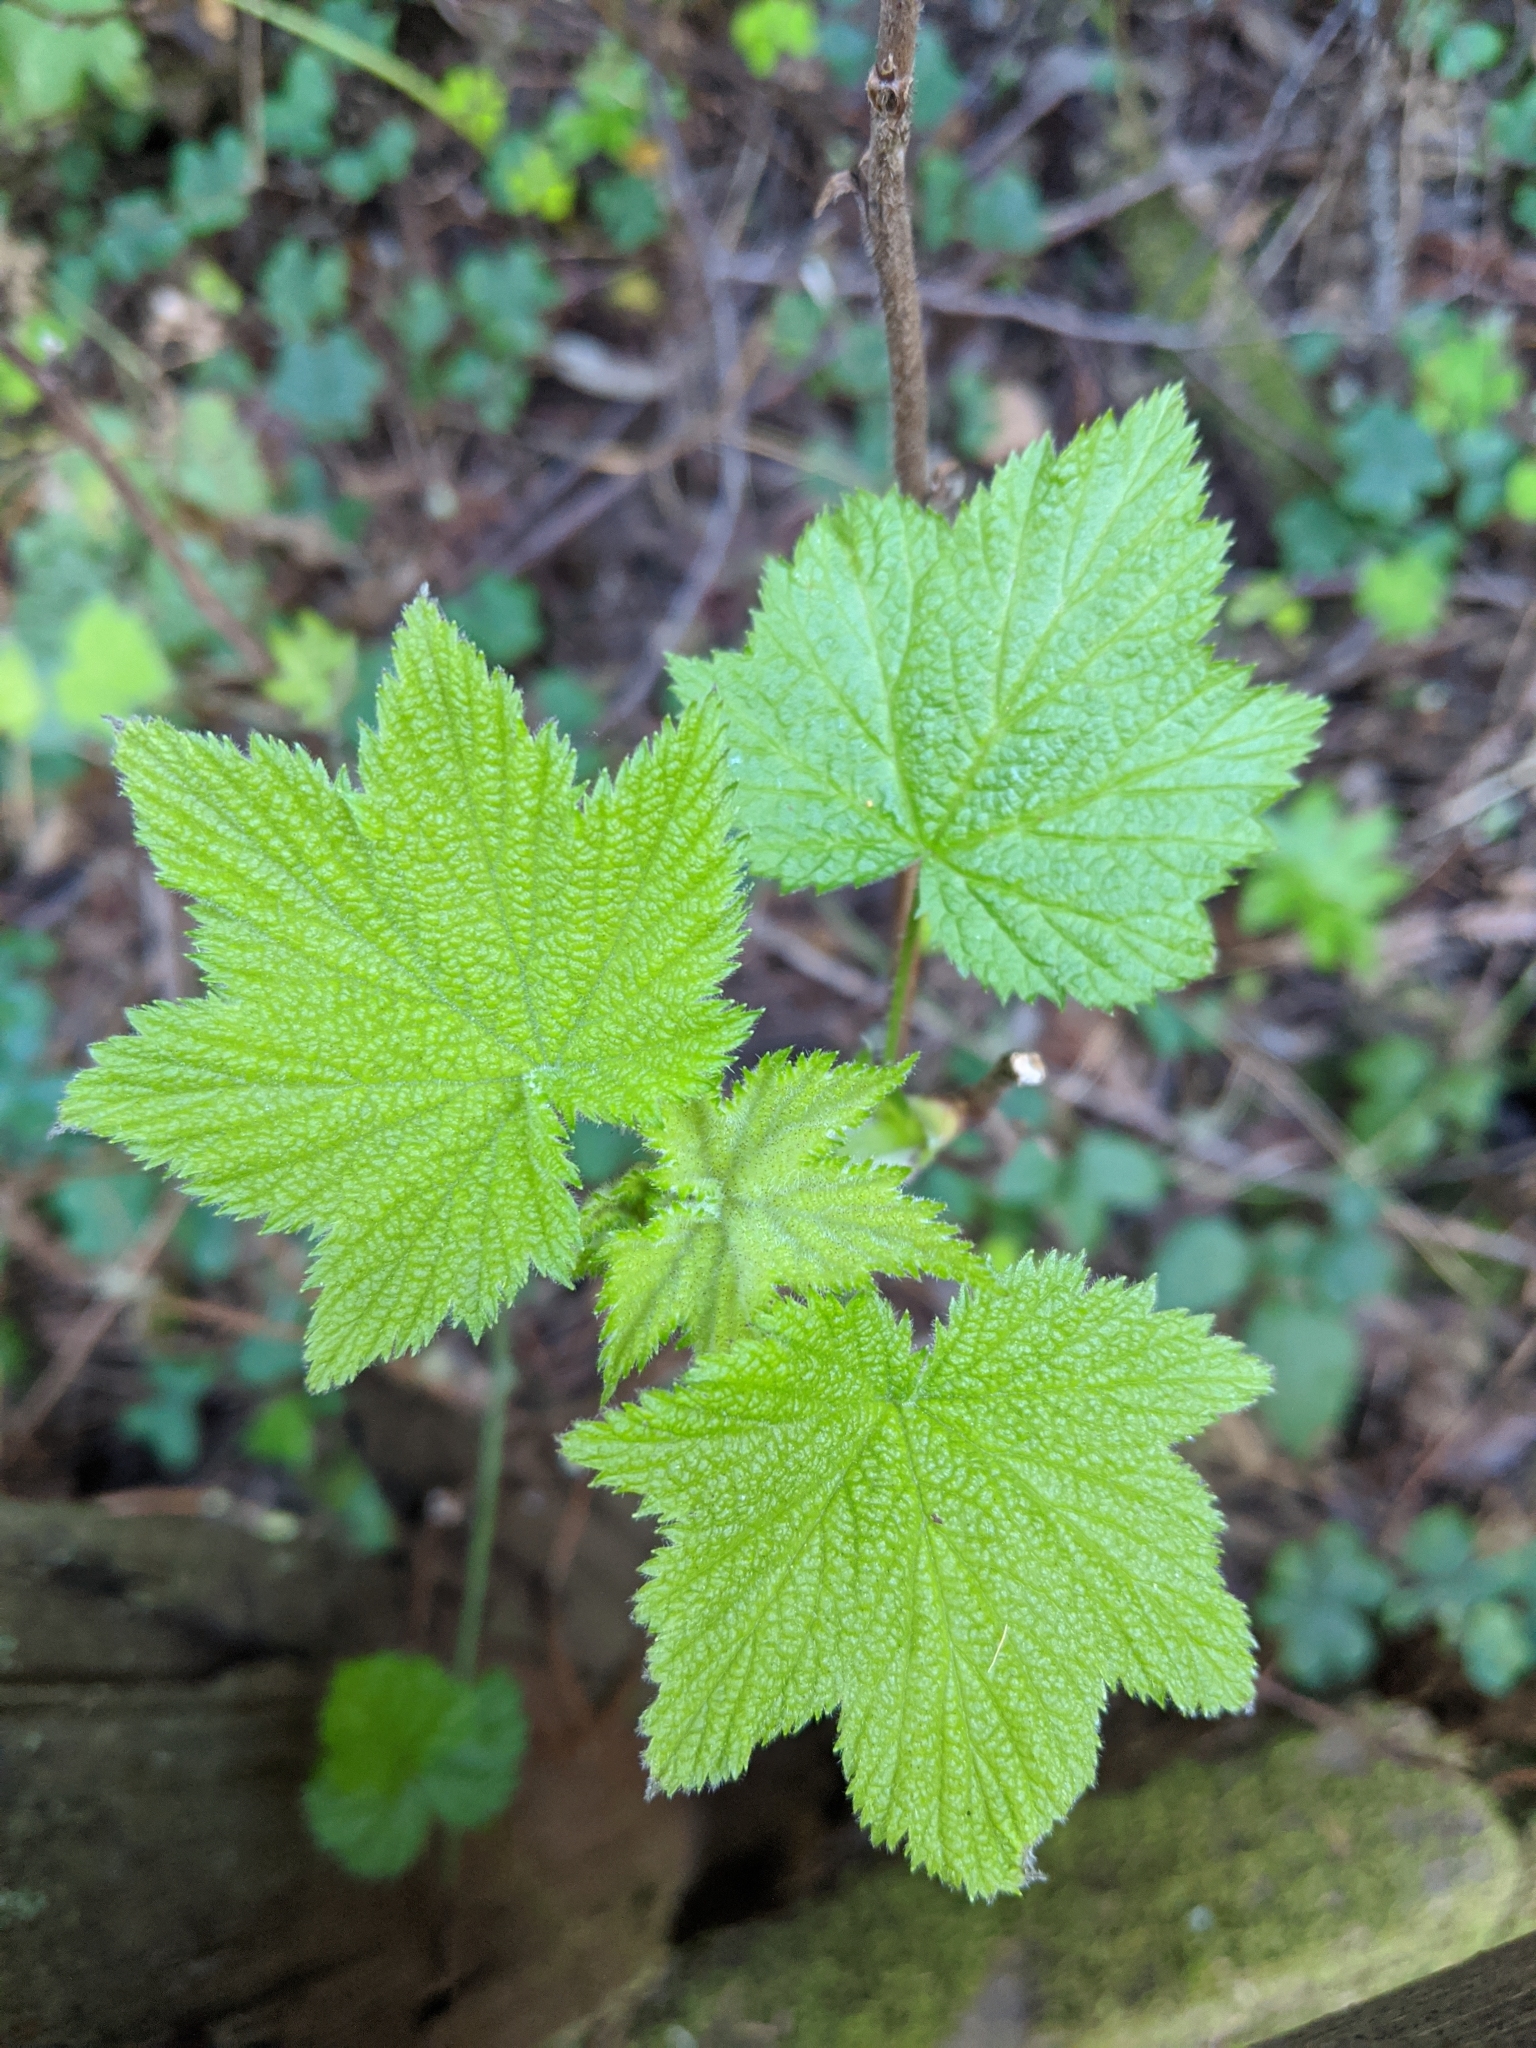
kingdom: Plantae
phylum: Tracheophyta
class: Magnoliopsida
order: Rosales
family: Rosaceae
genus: Rubus
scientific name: Rubus parviflorus
